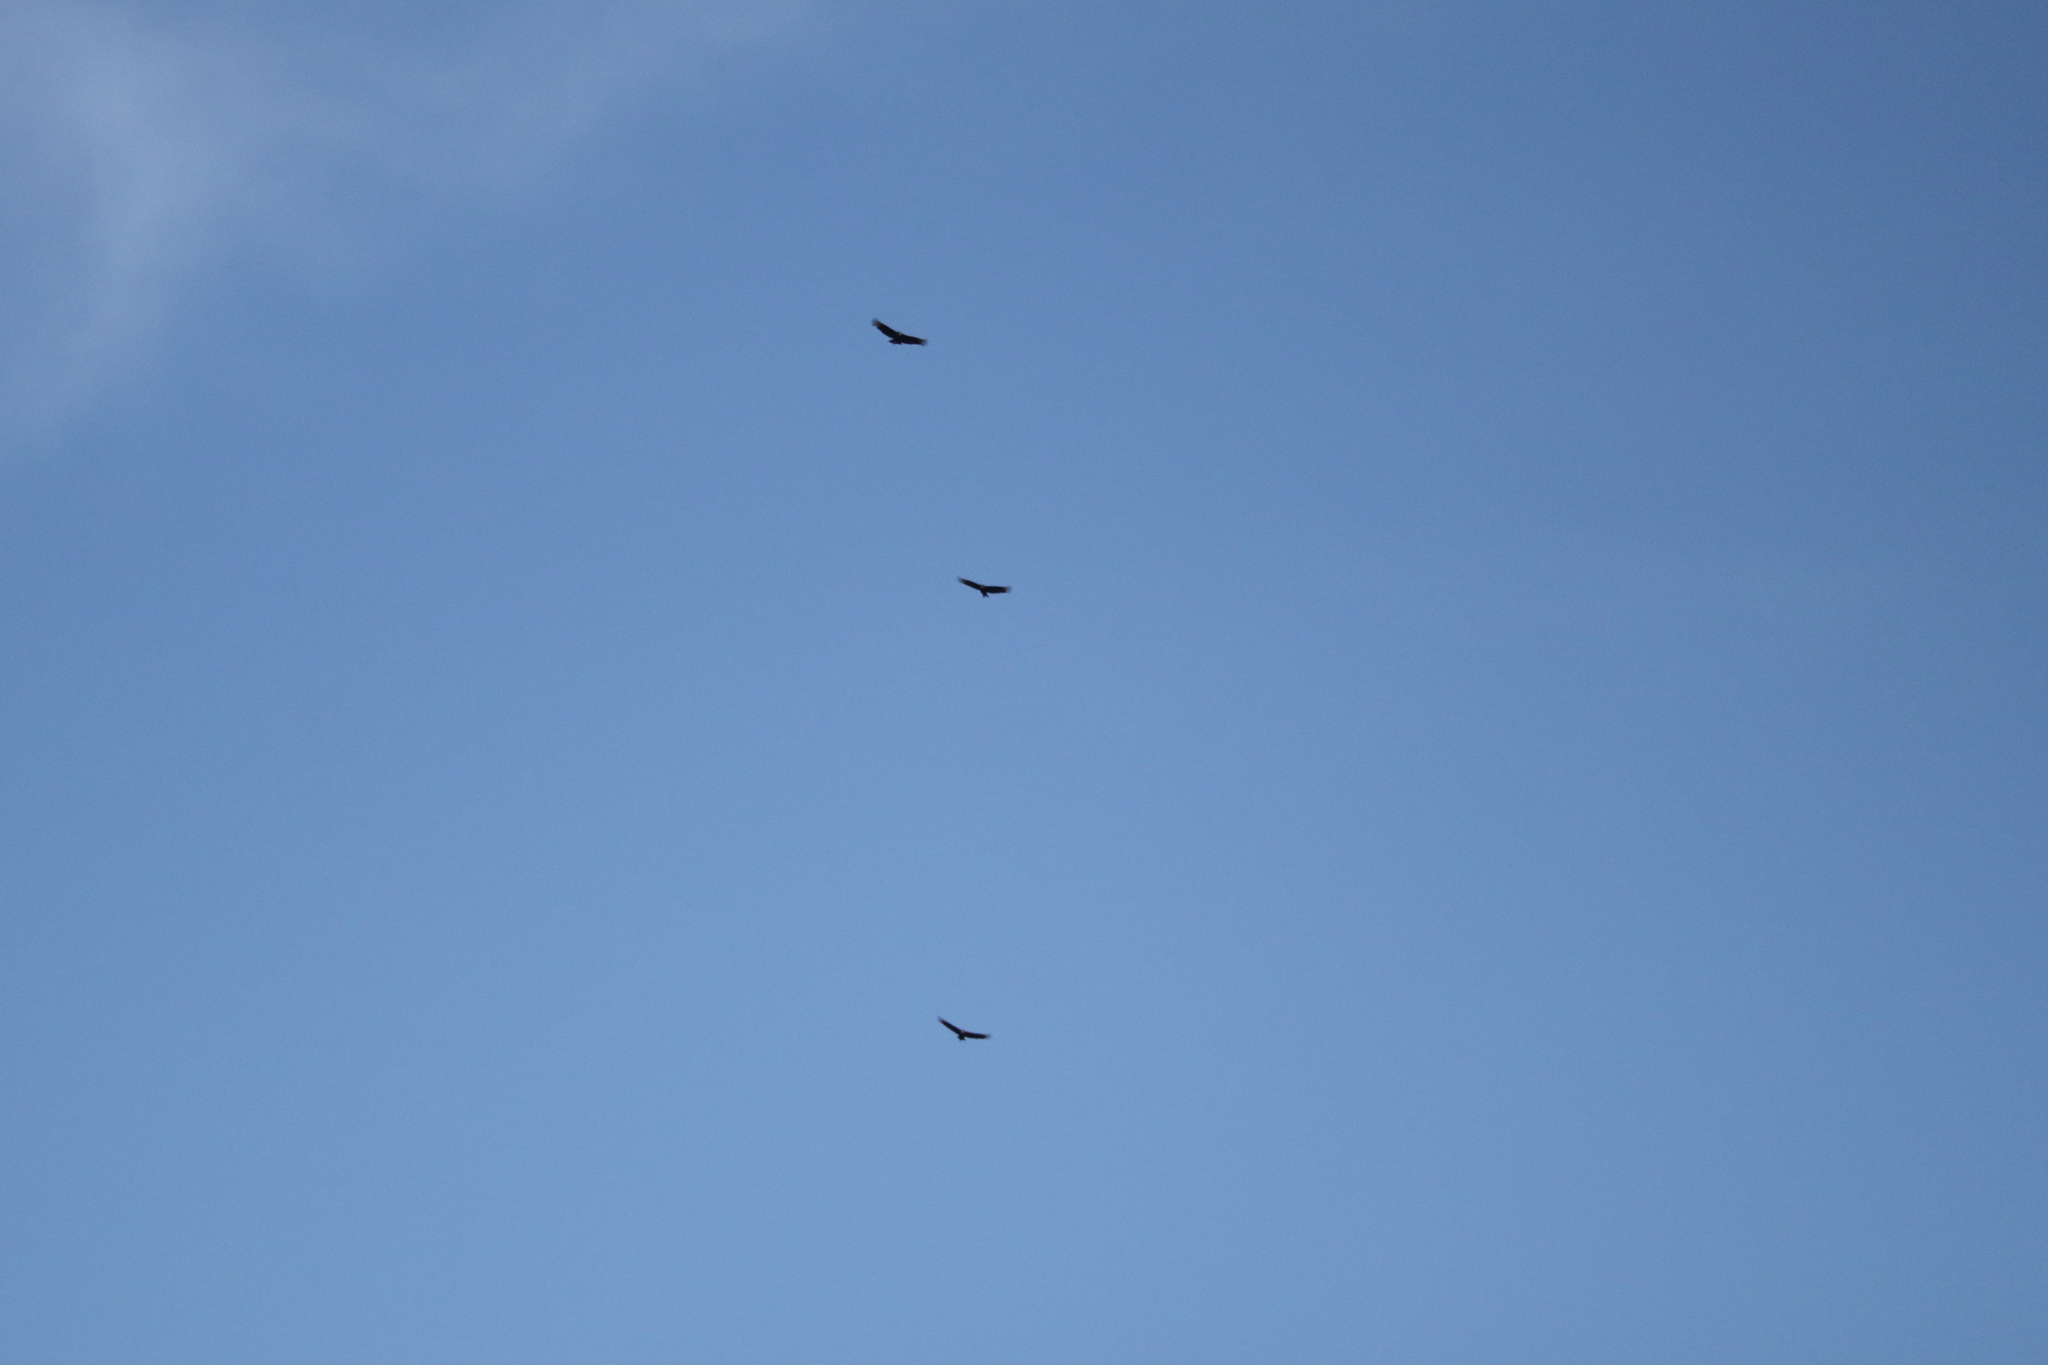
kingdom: Animalia
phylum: Chordata
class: Aves
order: Accipitriformes
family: Cathartidae
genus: Coragyps
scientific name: Coragyps atratus
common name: Black vulture
